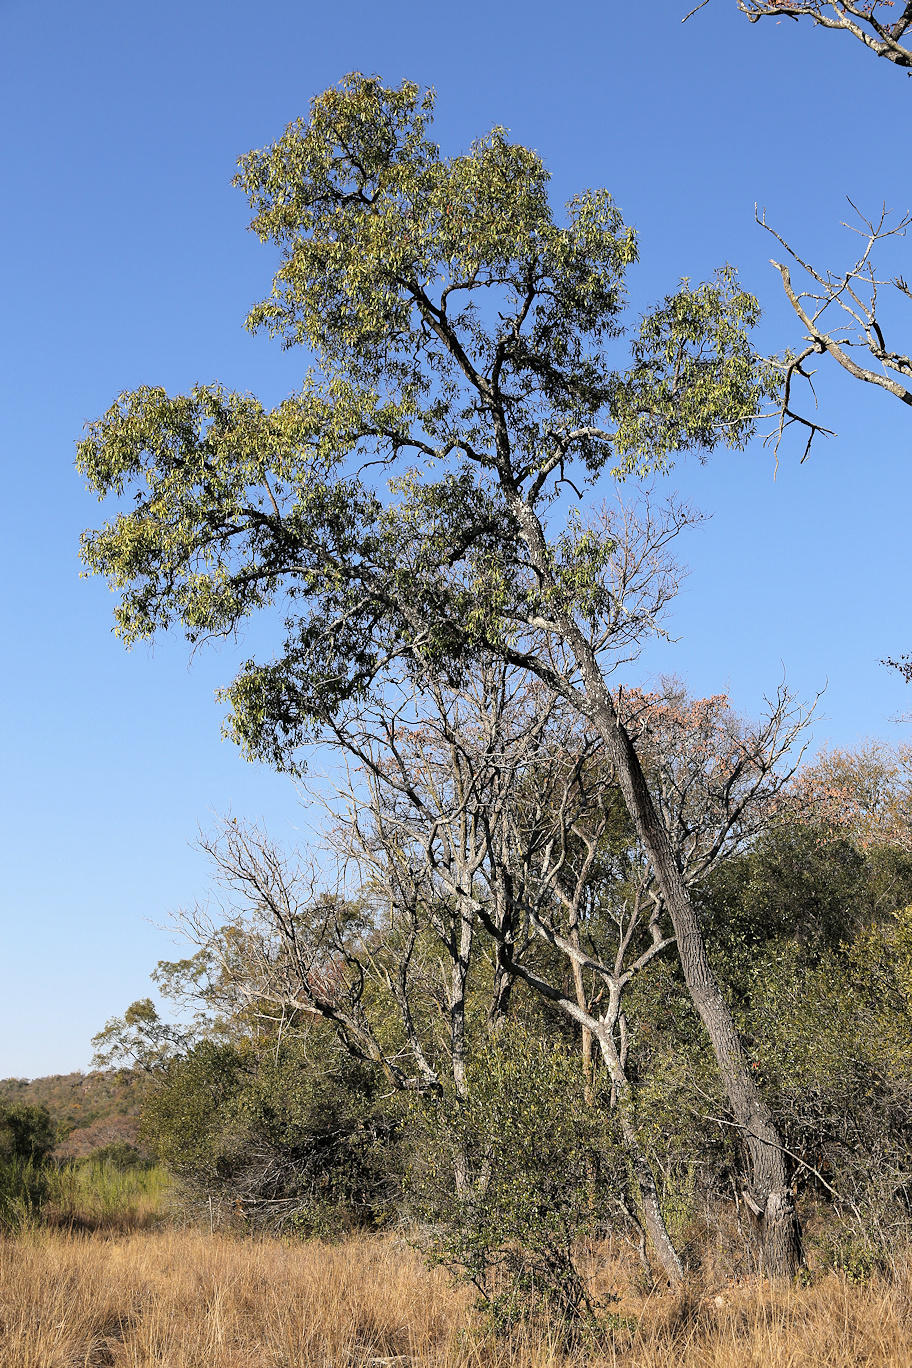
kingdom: Plantae
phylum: Tracheophyta
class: Magnoliopsida
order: Proteales
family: Proteaceae
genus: Faurea
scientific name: Faurea saligna
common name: African bean
